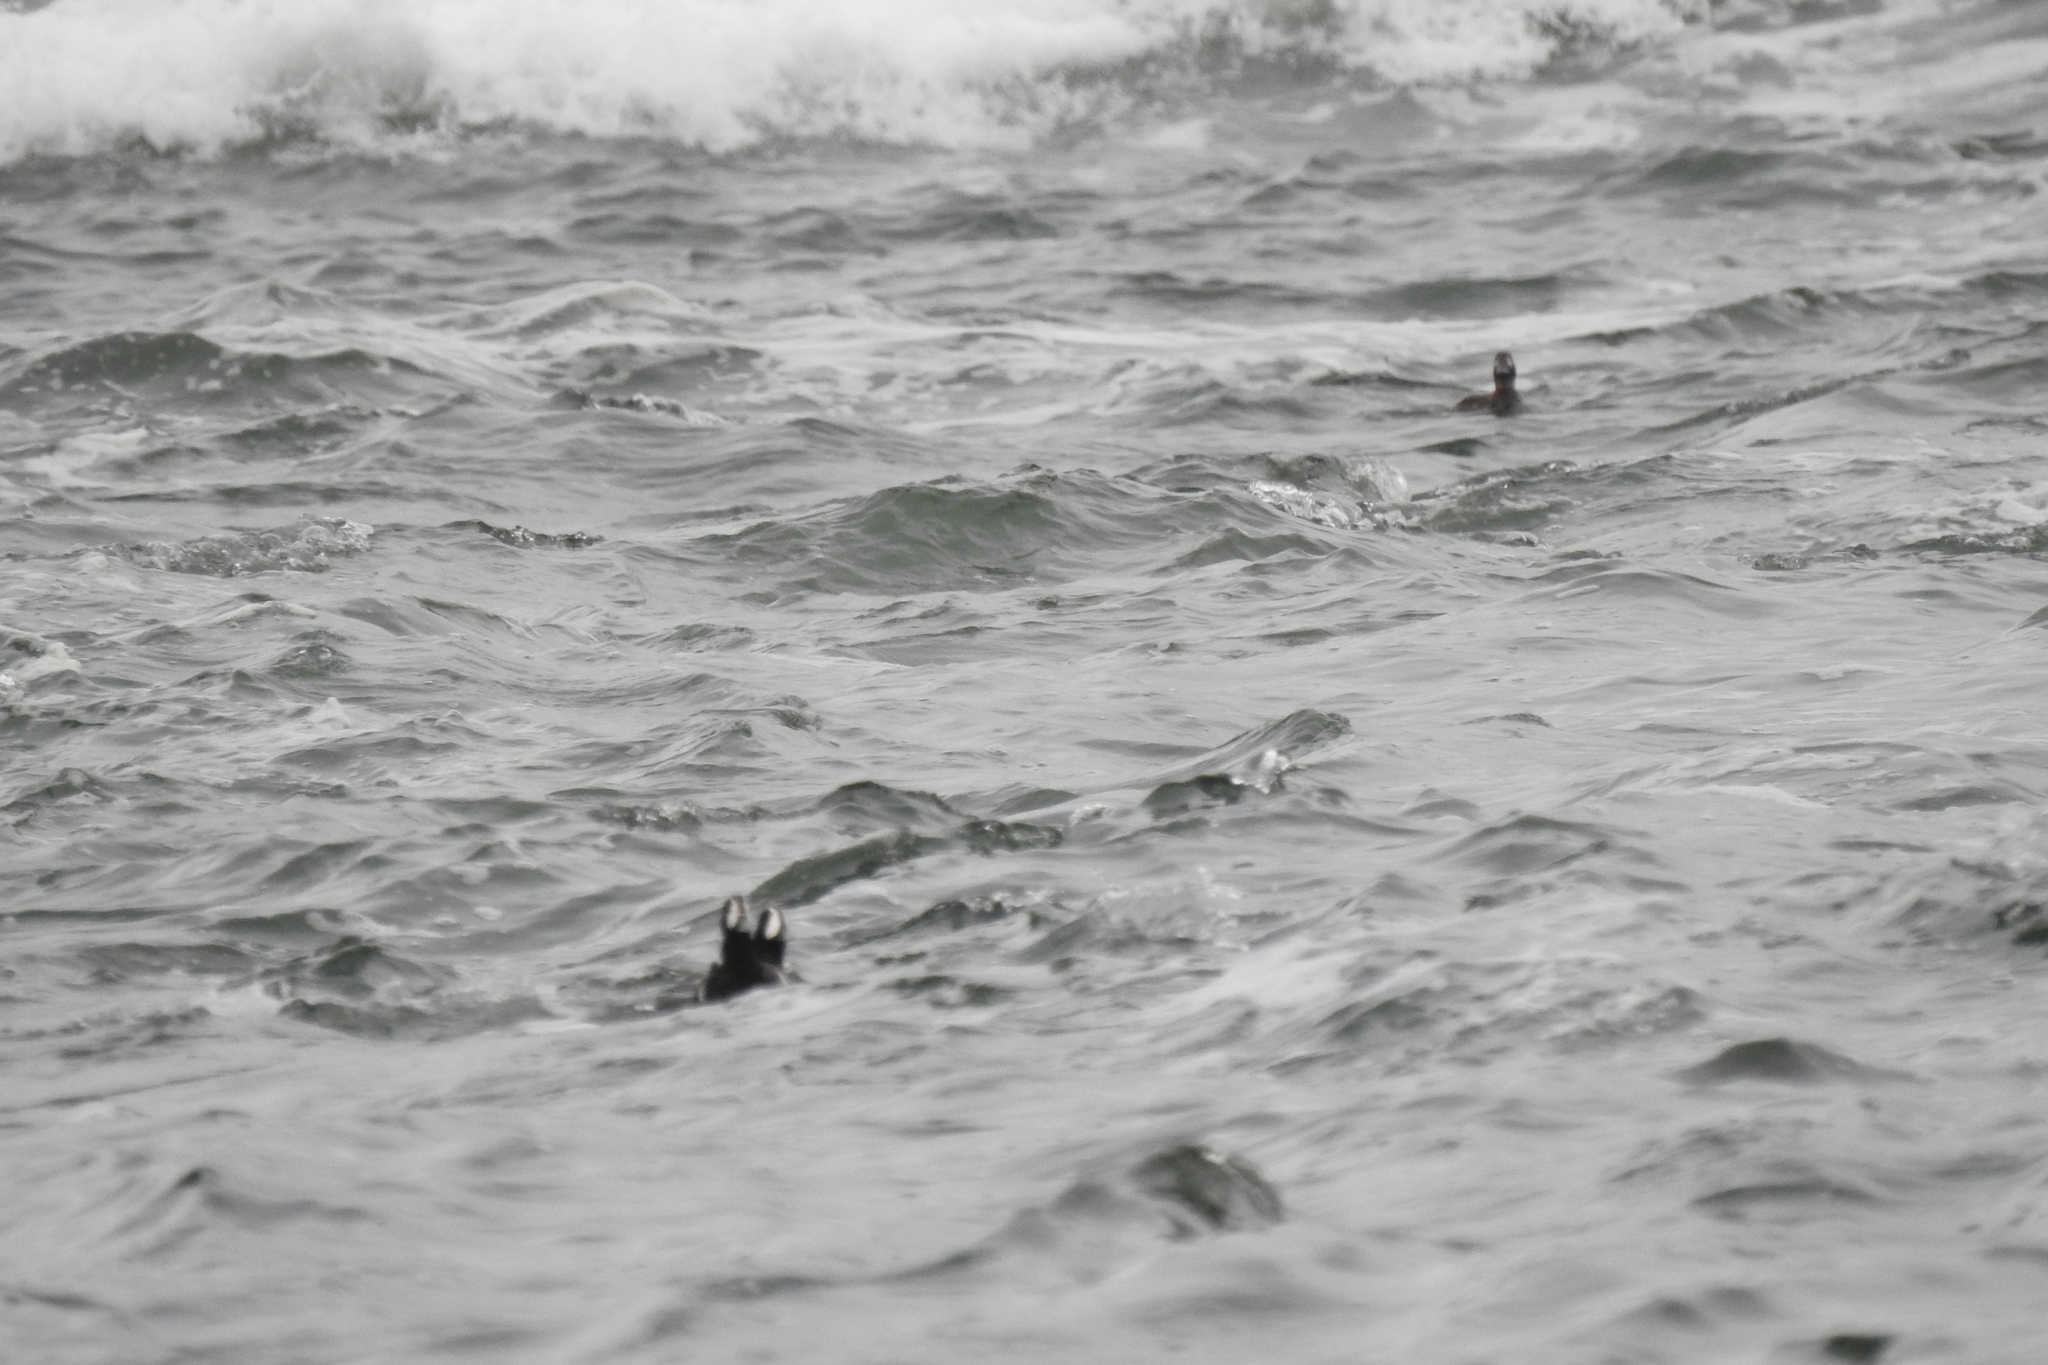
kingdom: Animalia
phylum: Chordata
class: Aves
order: Anseriformes
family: Anatidae
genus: Histrionicus
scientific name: Histrionicus histrionicus
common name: Harlequin duck
